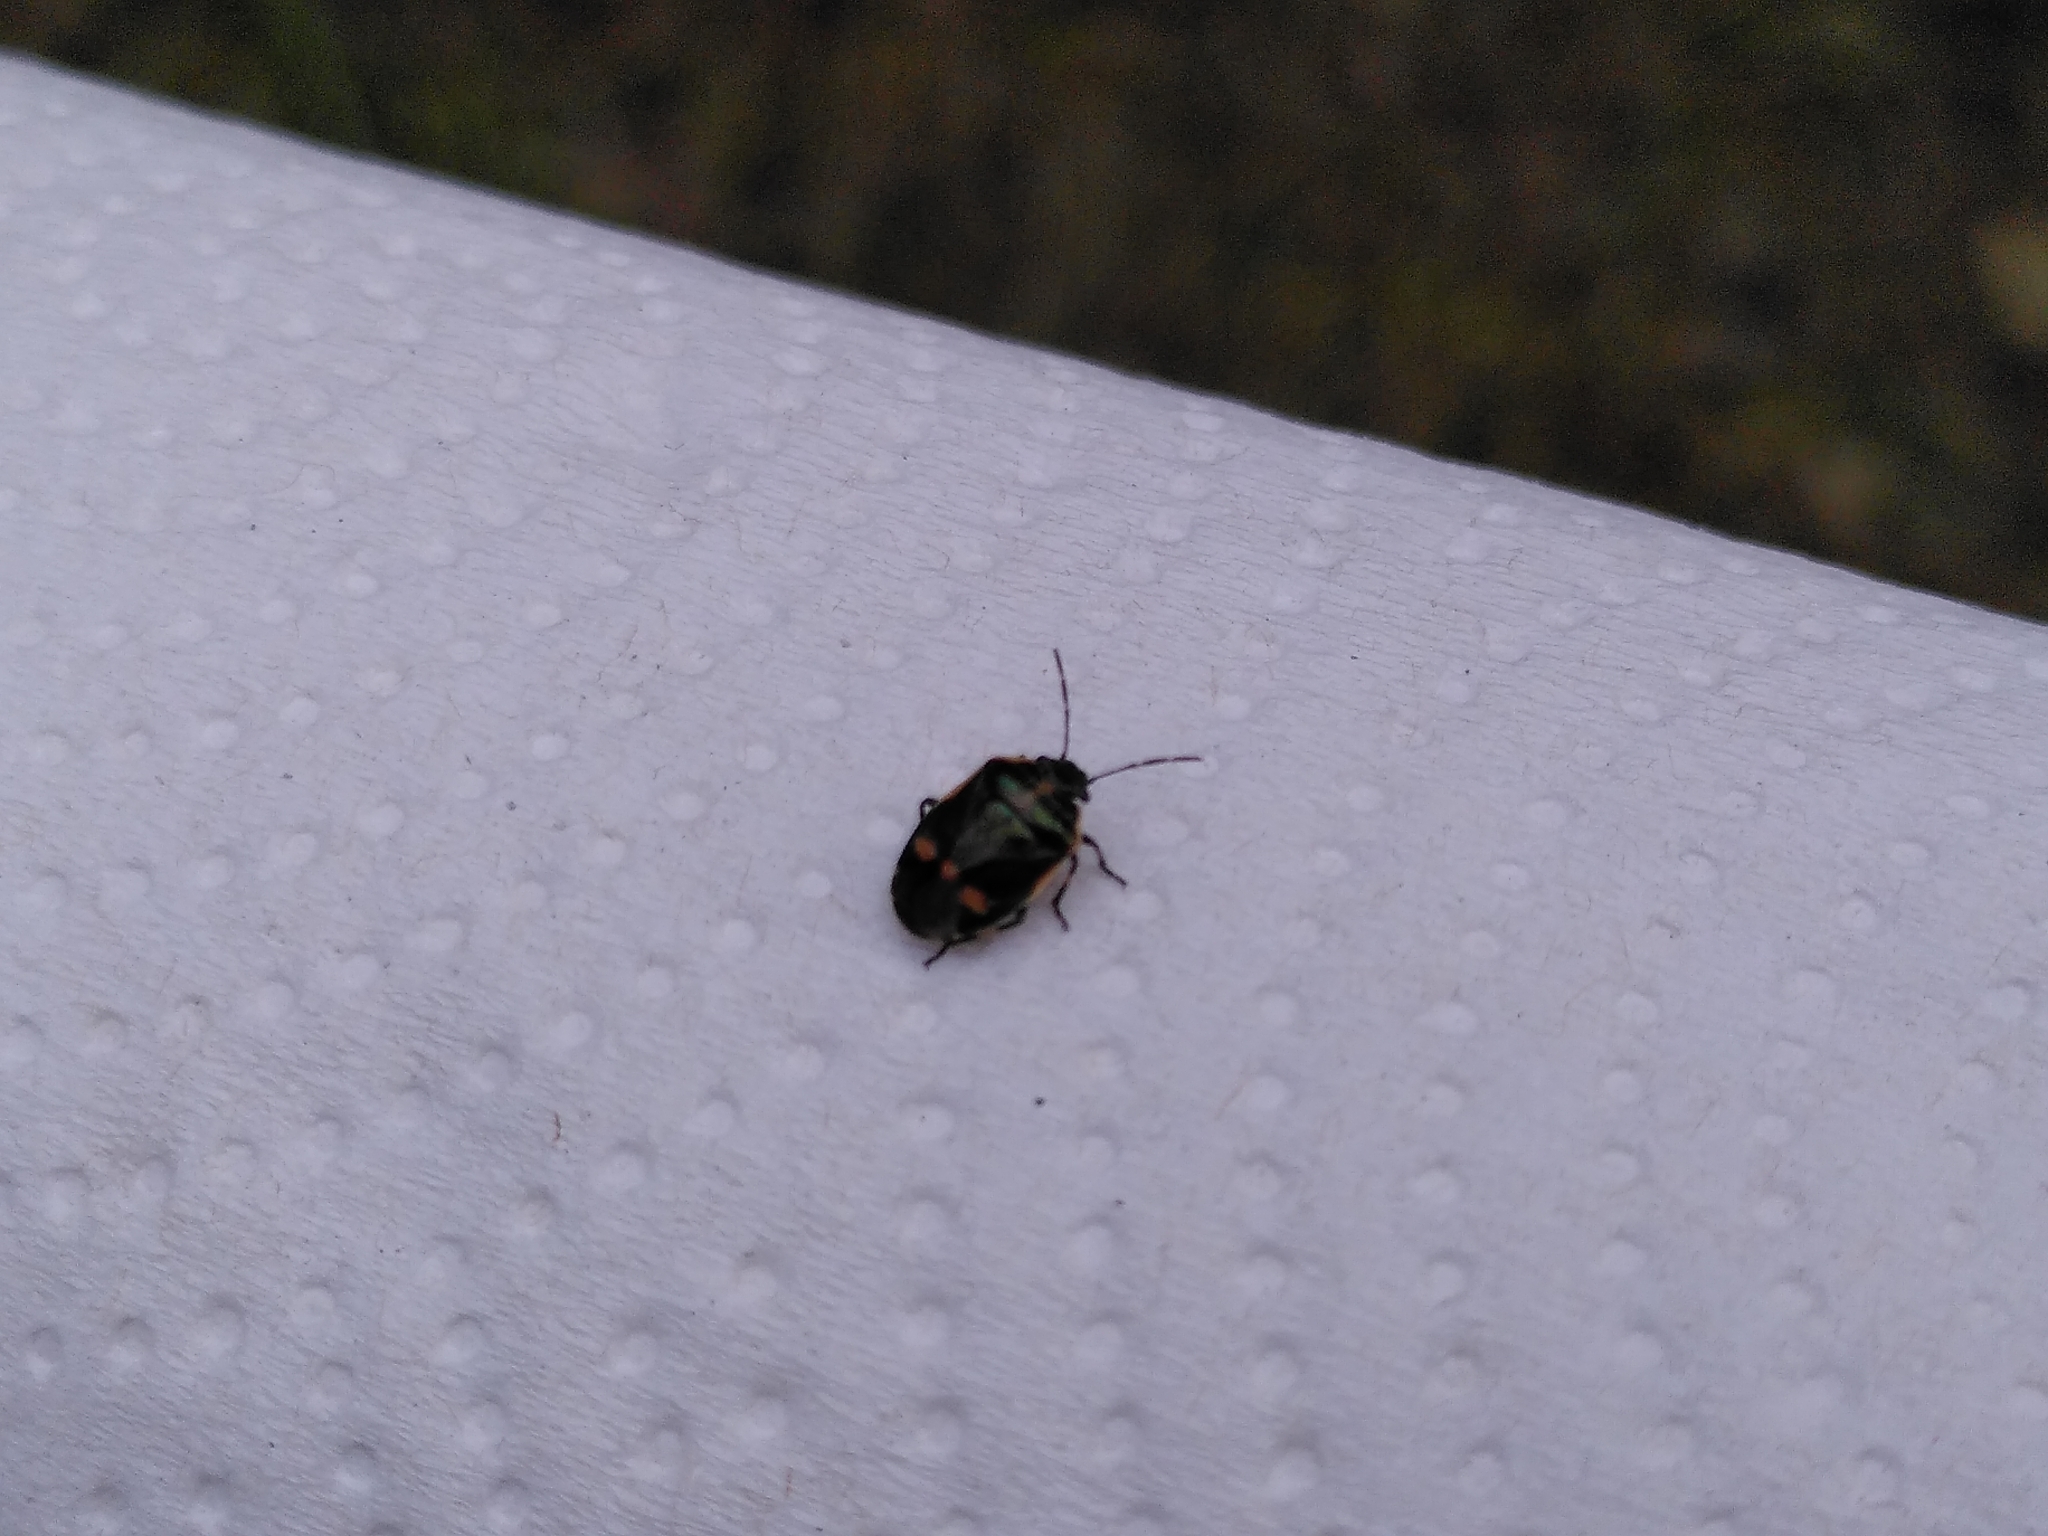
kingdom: Animalia
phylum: Arthropoda
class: Insecta
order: Hemiptera
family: Pentatomidae
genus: Eurydema
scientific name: Eurydema oleracea
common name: Cabbage bug
